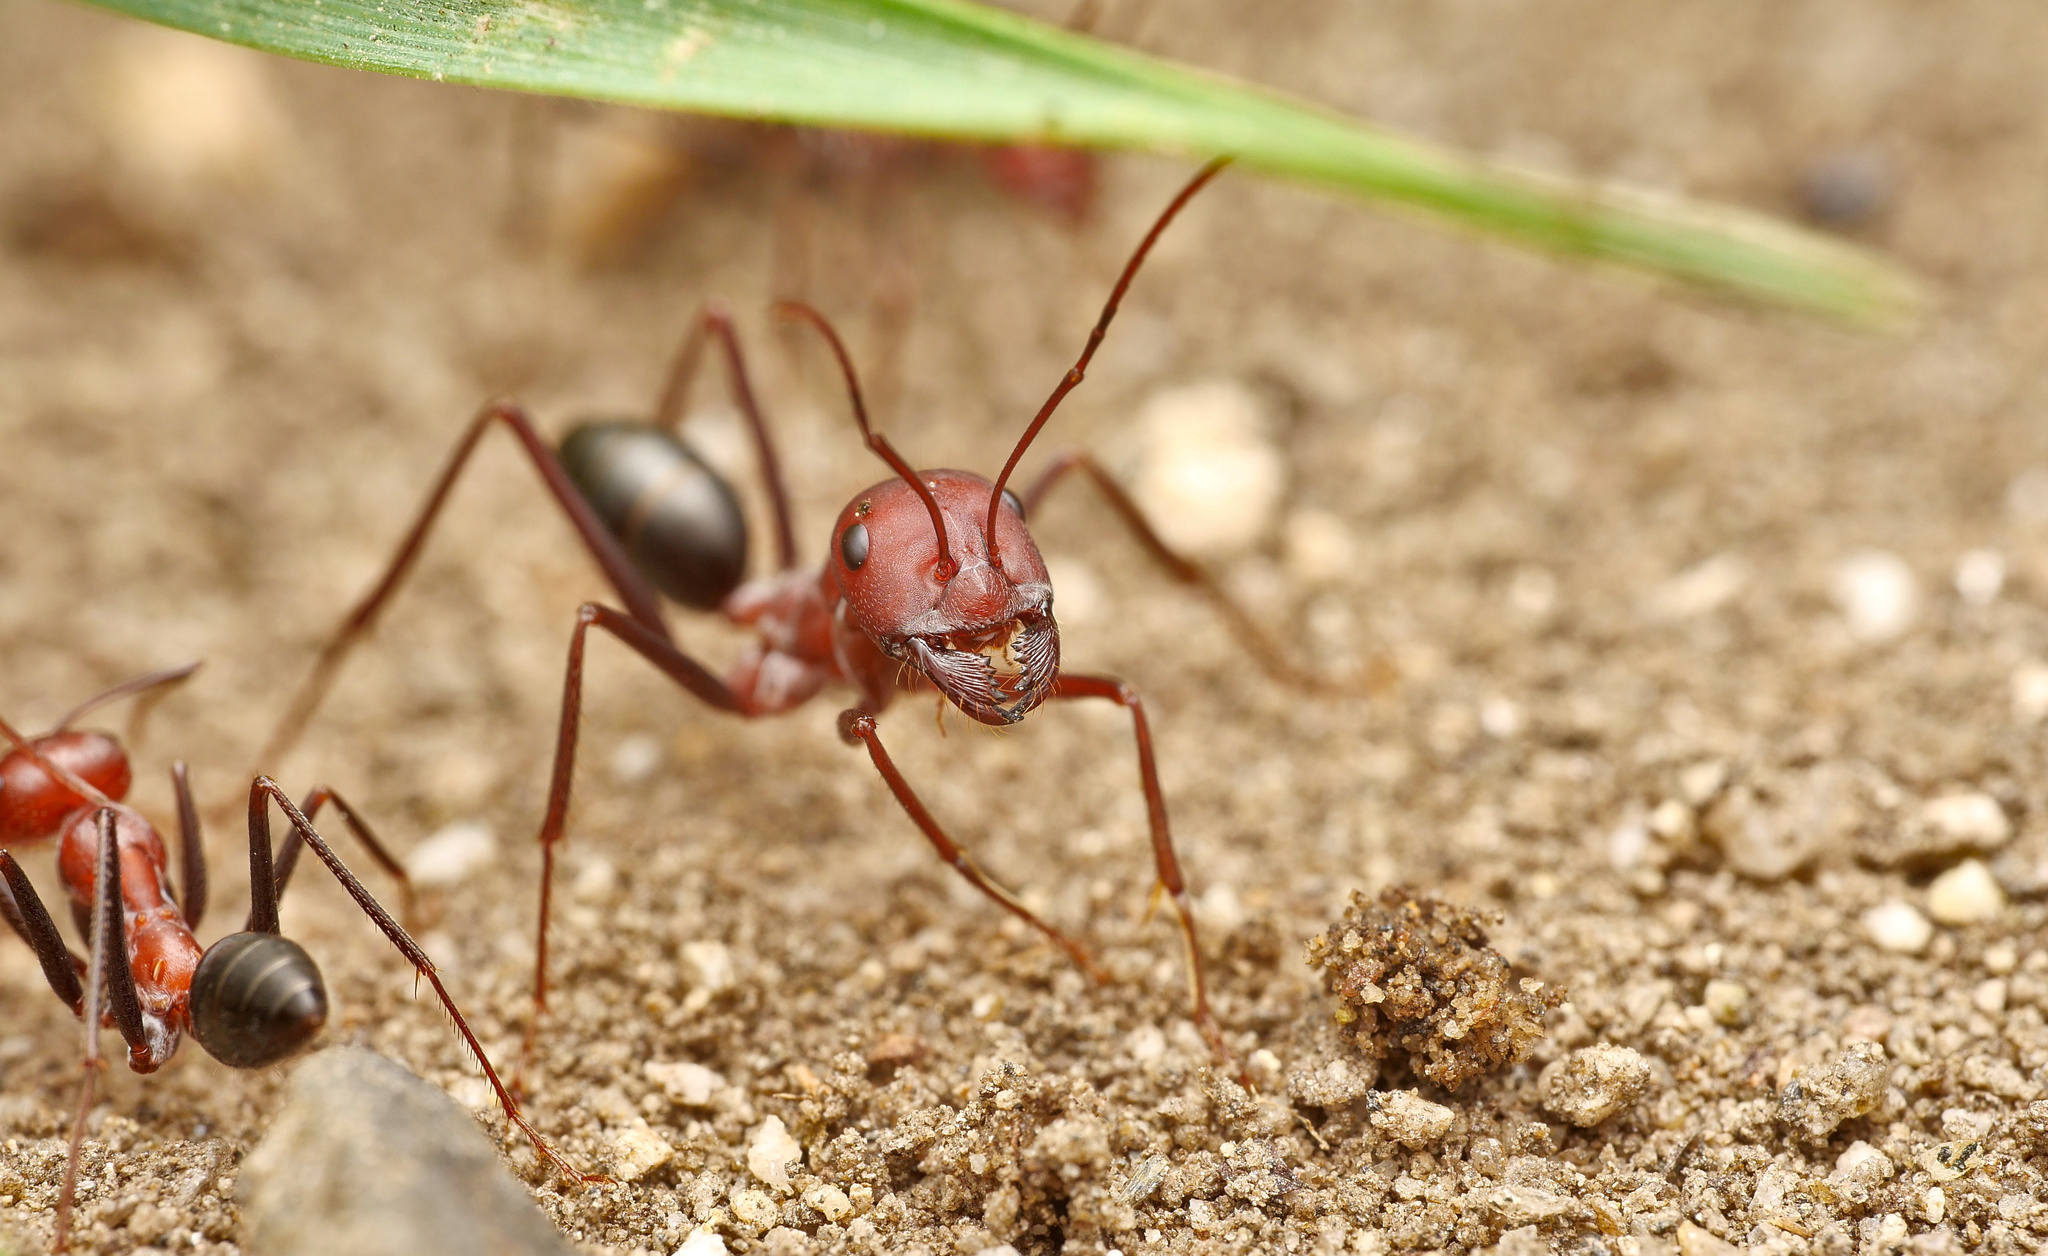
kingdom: Animalia
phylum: Arthropoda
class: Insecta
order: Hymenoptera
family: Formicidae
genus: Cataglyphis
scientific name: Cataglyphis nodus
